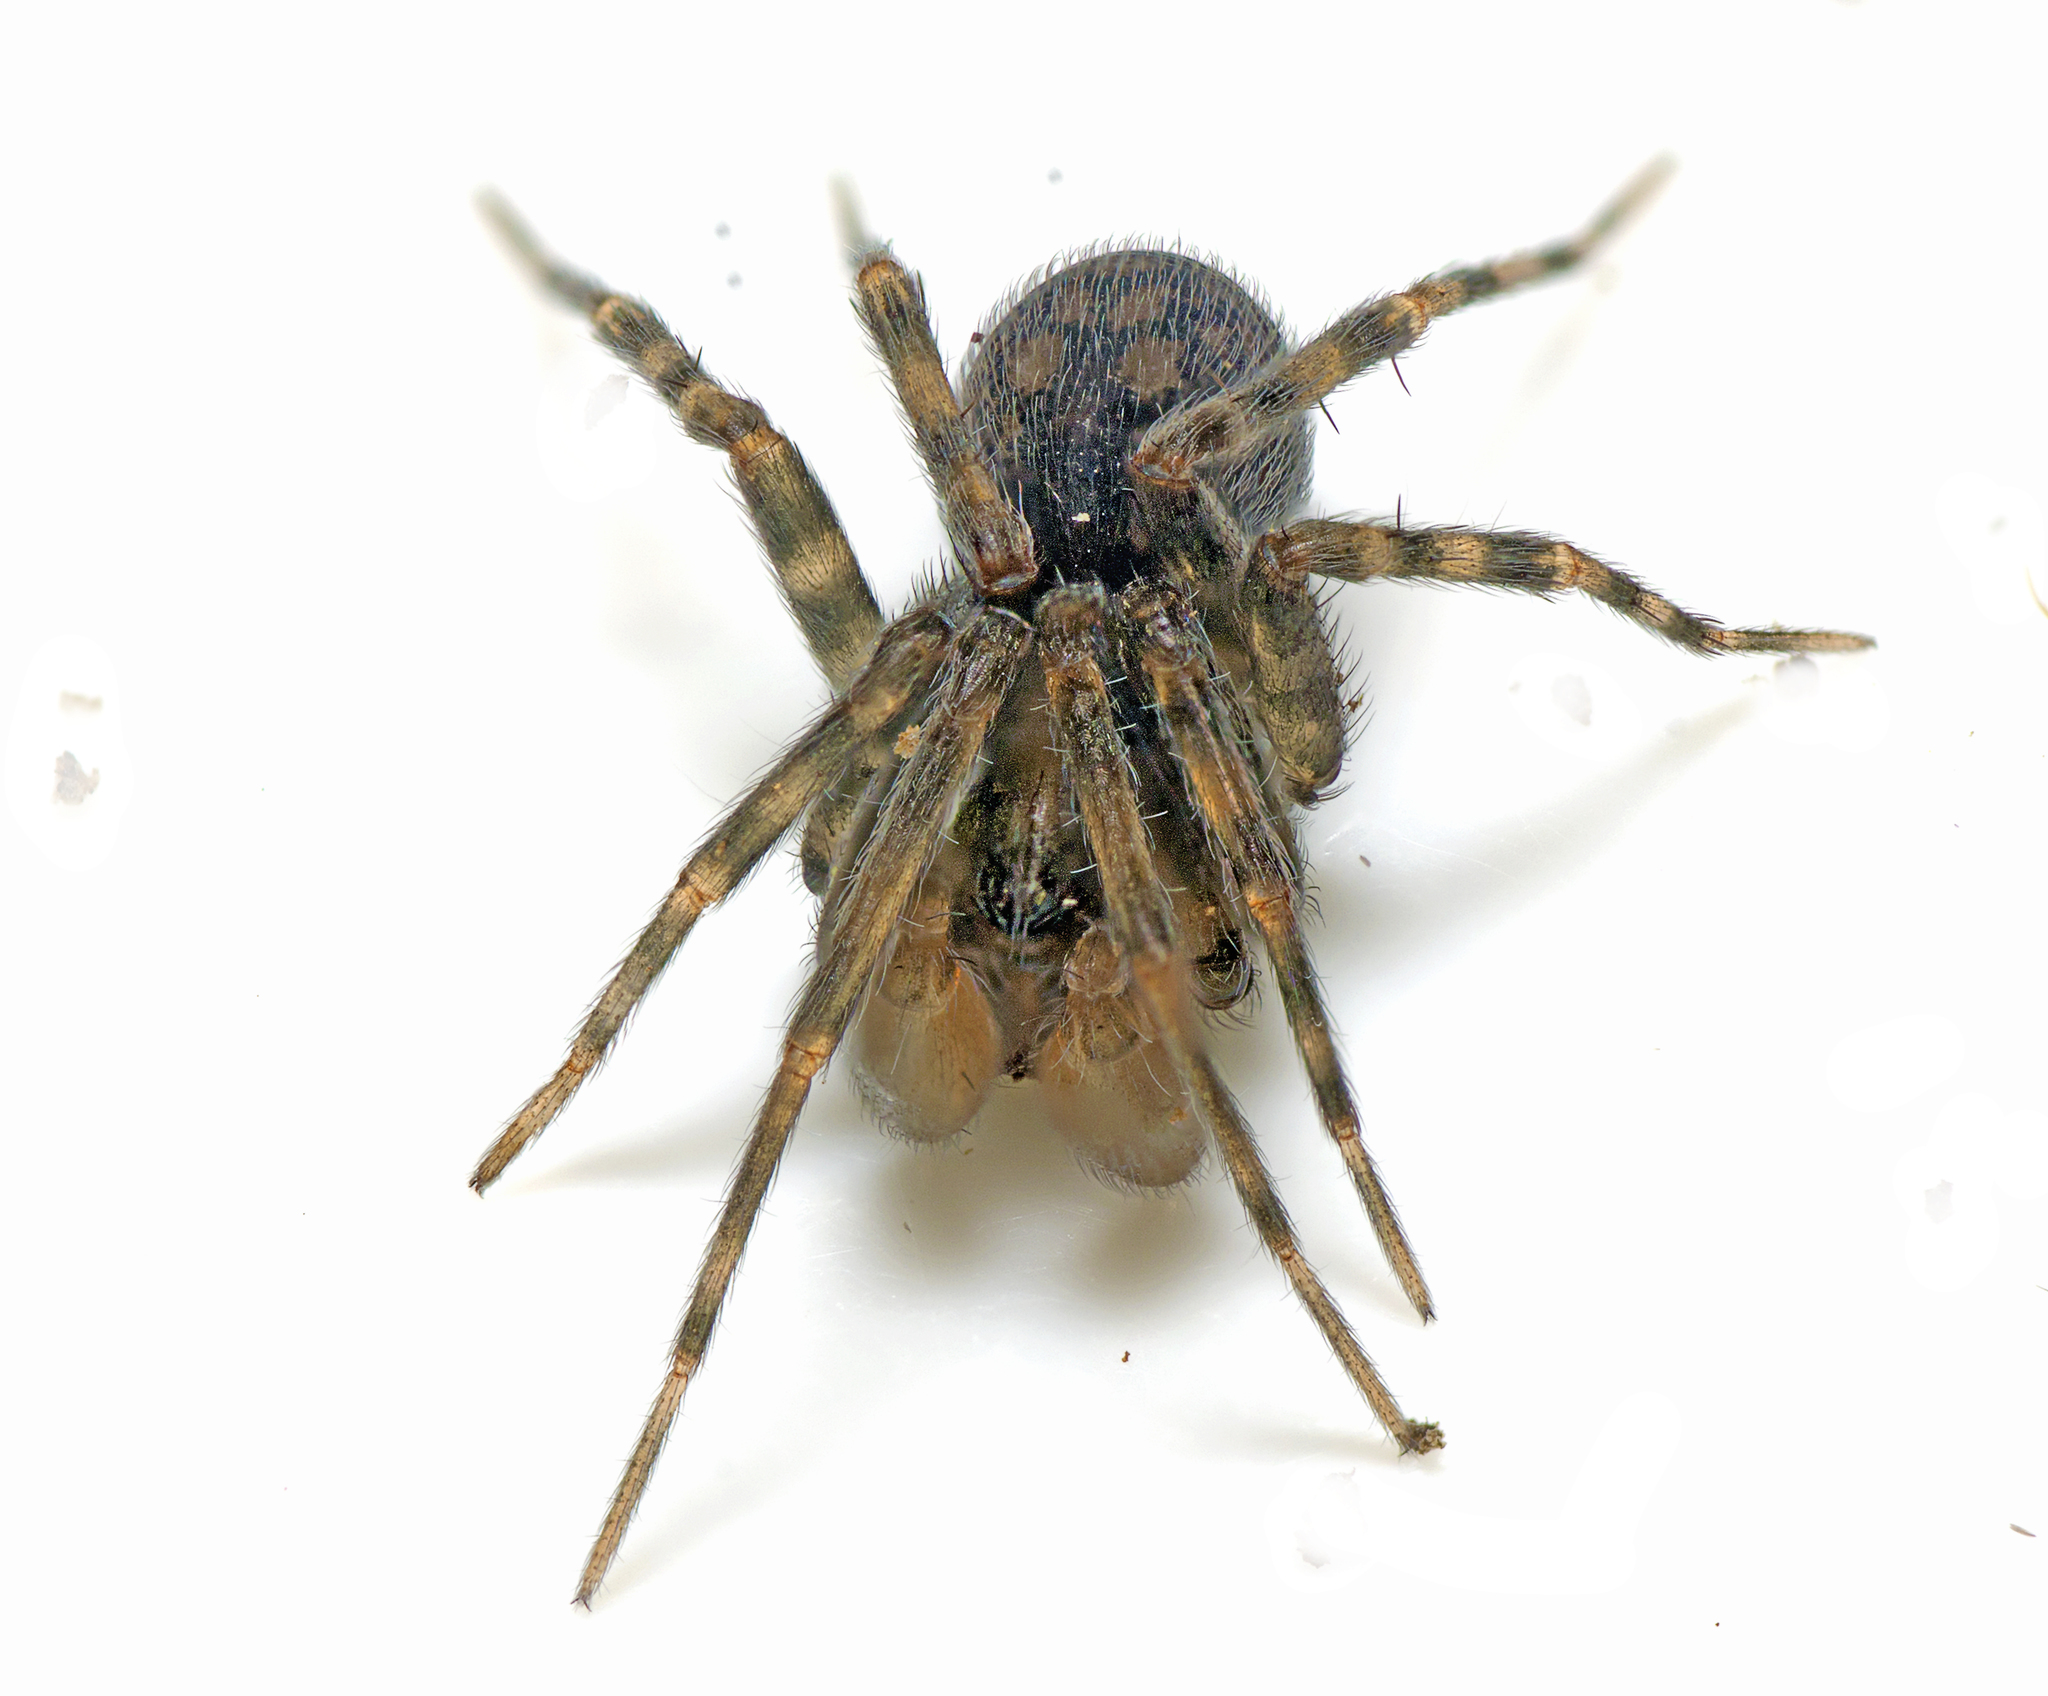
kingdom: Animalia
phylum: Arthropoda
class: Arachnida
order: Araneae
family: Desidae
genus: Barahna
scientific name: Barahna booloumba
